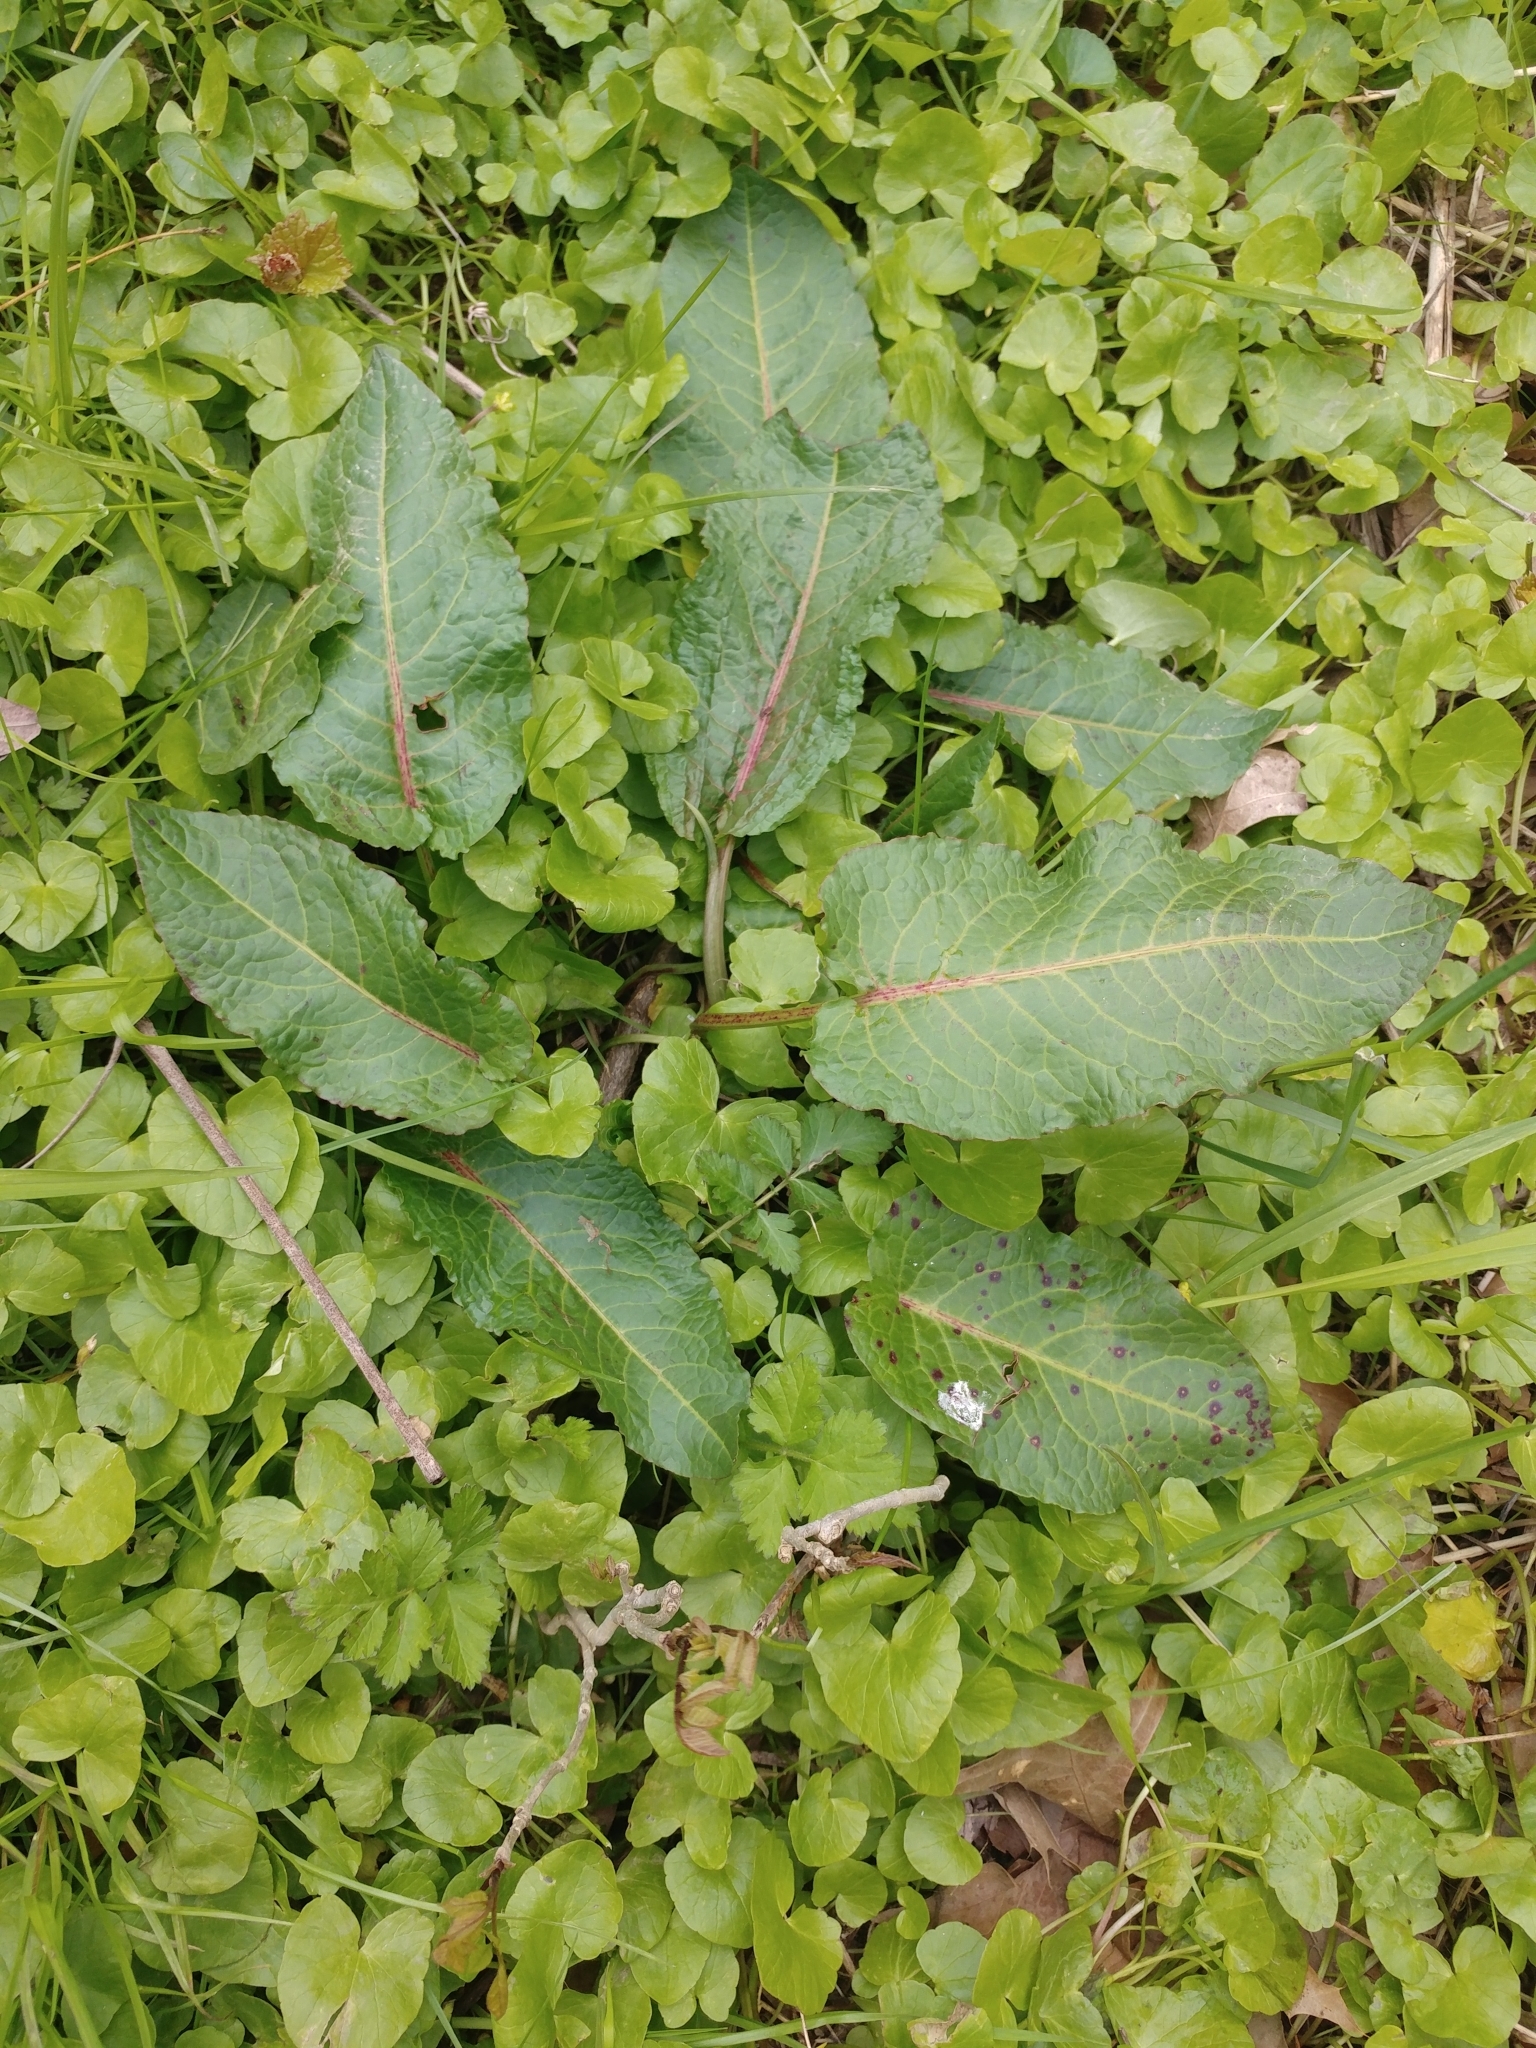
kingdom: Plantae
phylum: Tracheophyta
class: Magnoliopsida
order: Caryophyllales
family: Polygonaceae
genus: Rumex
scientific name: Rumex obtusifolius
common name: Bitter dock
